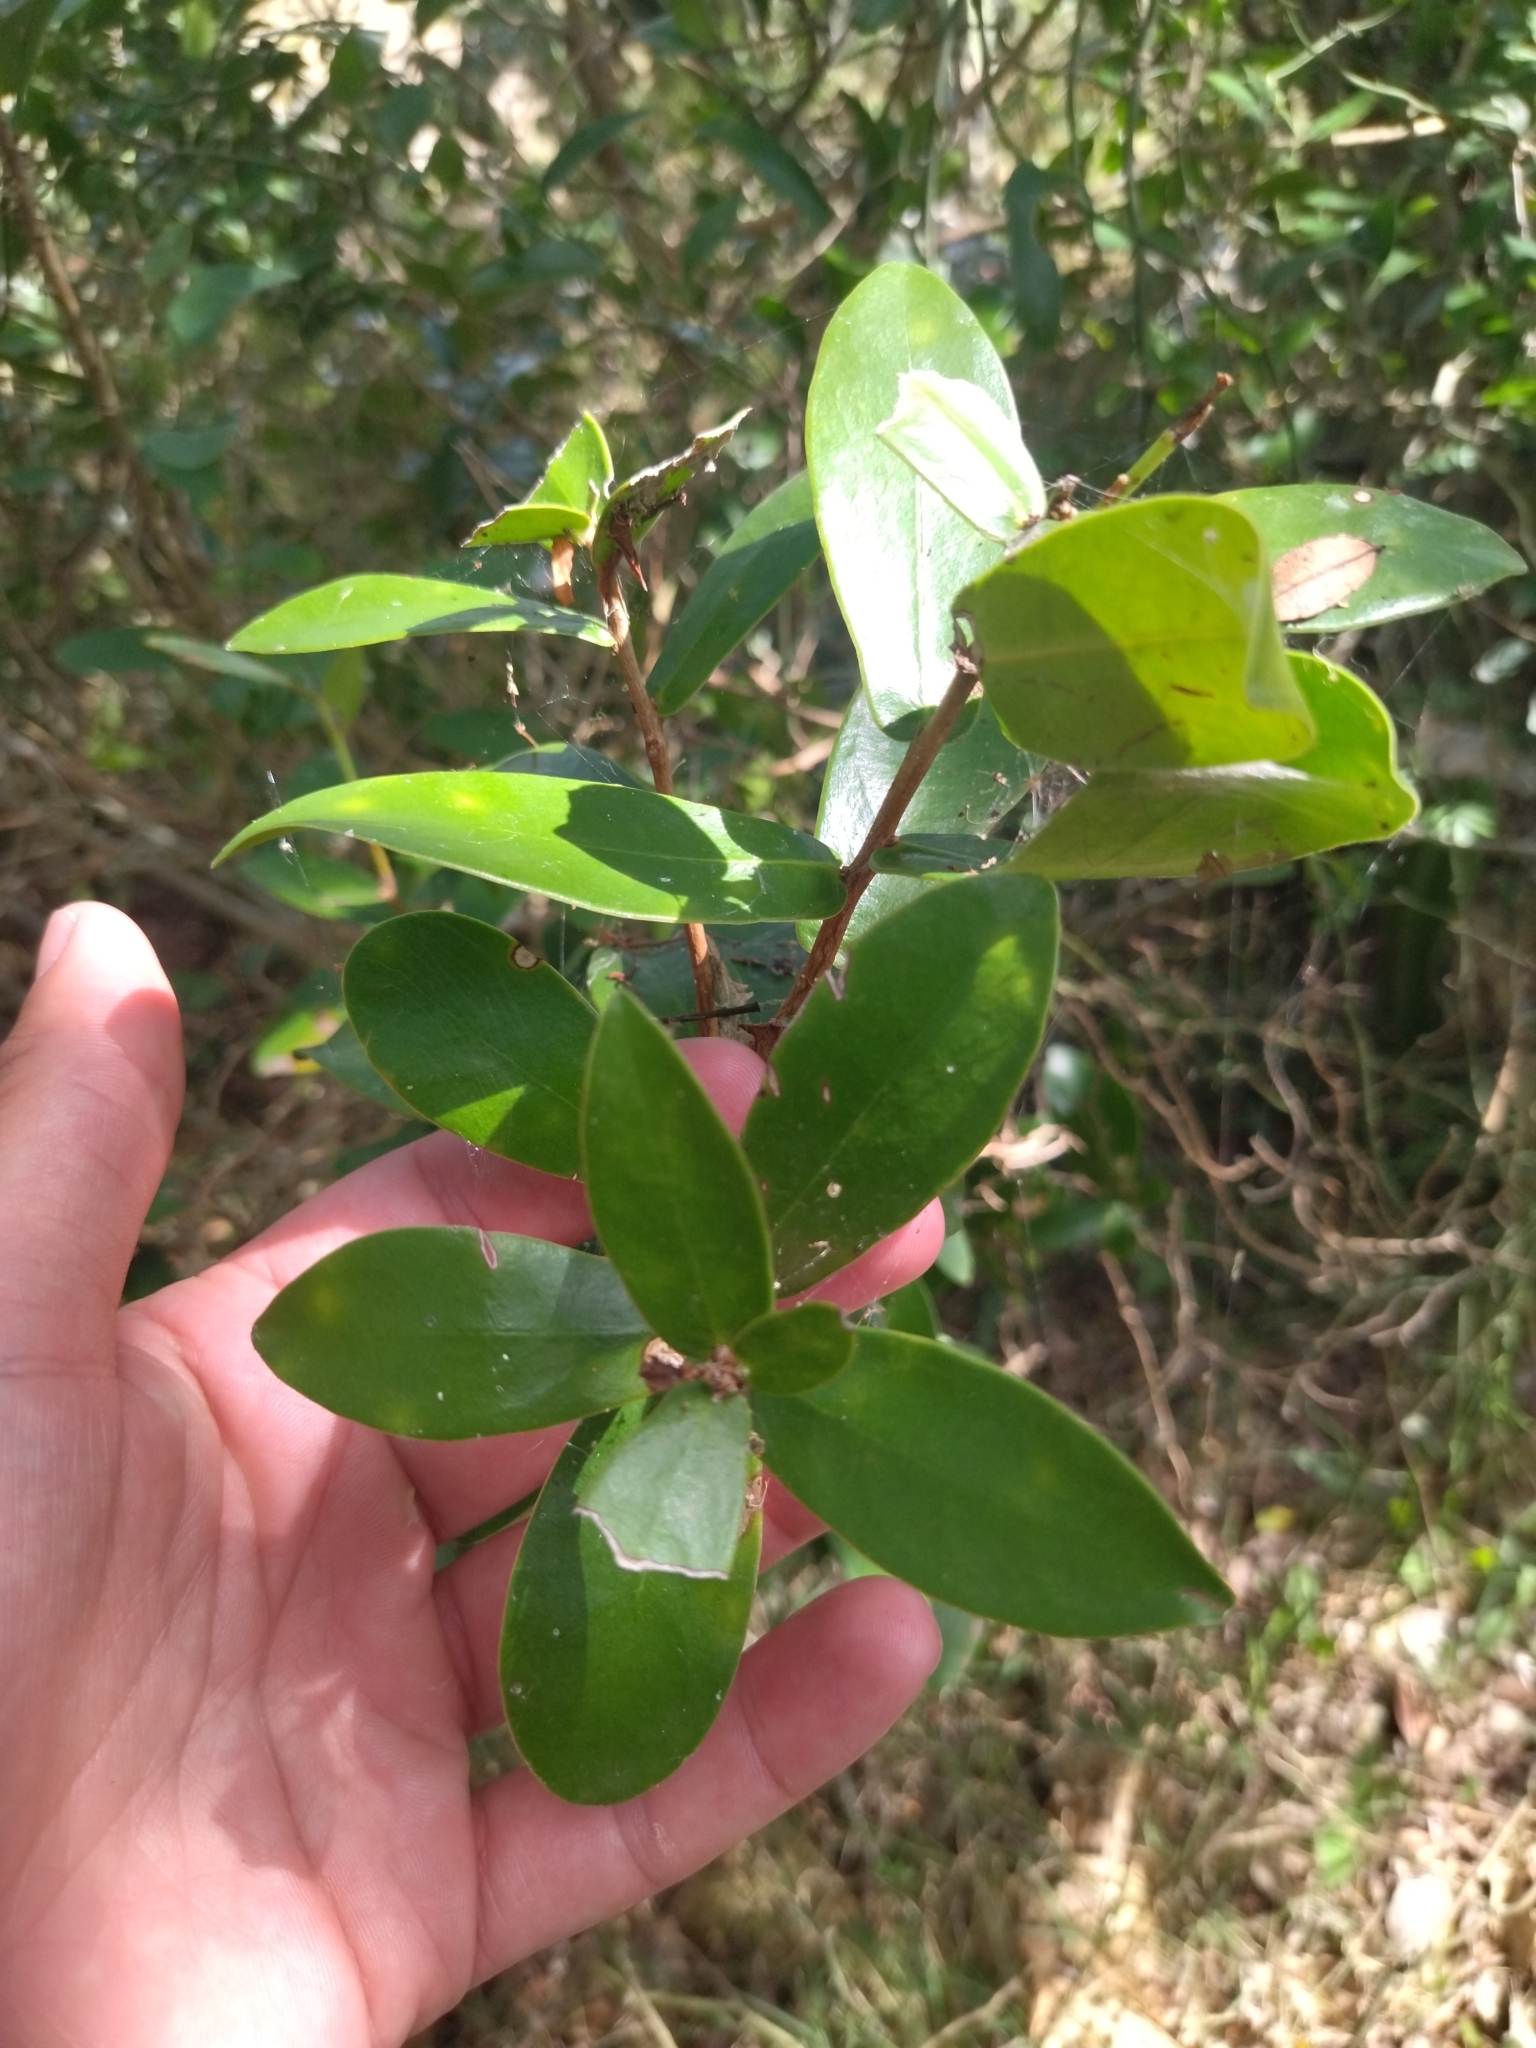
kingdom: Plantae
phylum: Tracheophyta
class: Magnoliopsida
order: Malvales
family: Thymelaeaceae
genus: Daphnopsis
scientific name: Daphnopsis racemosa
